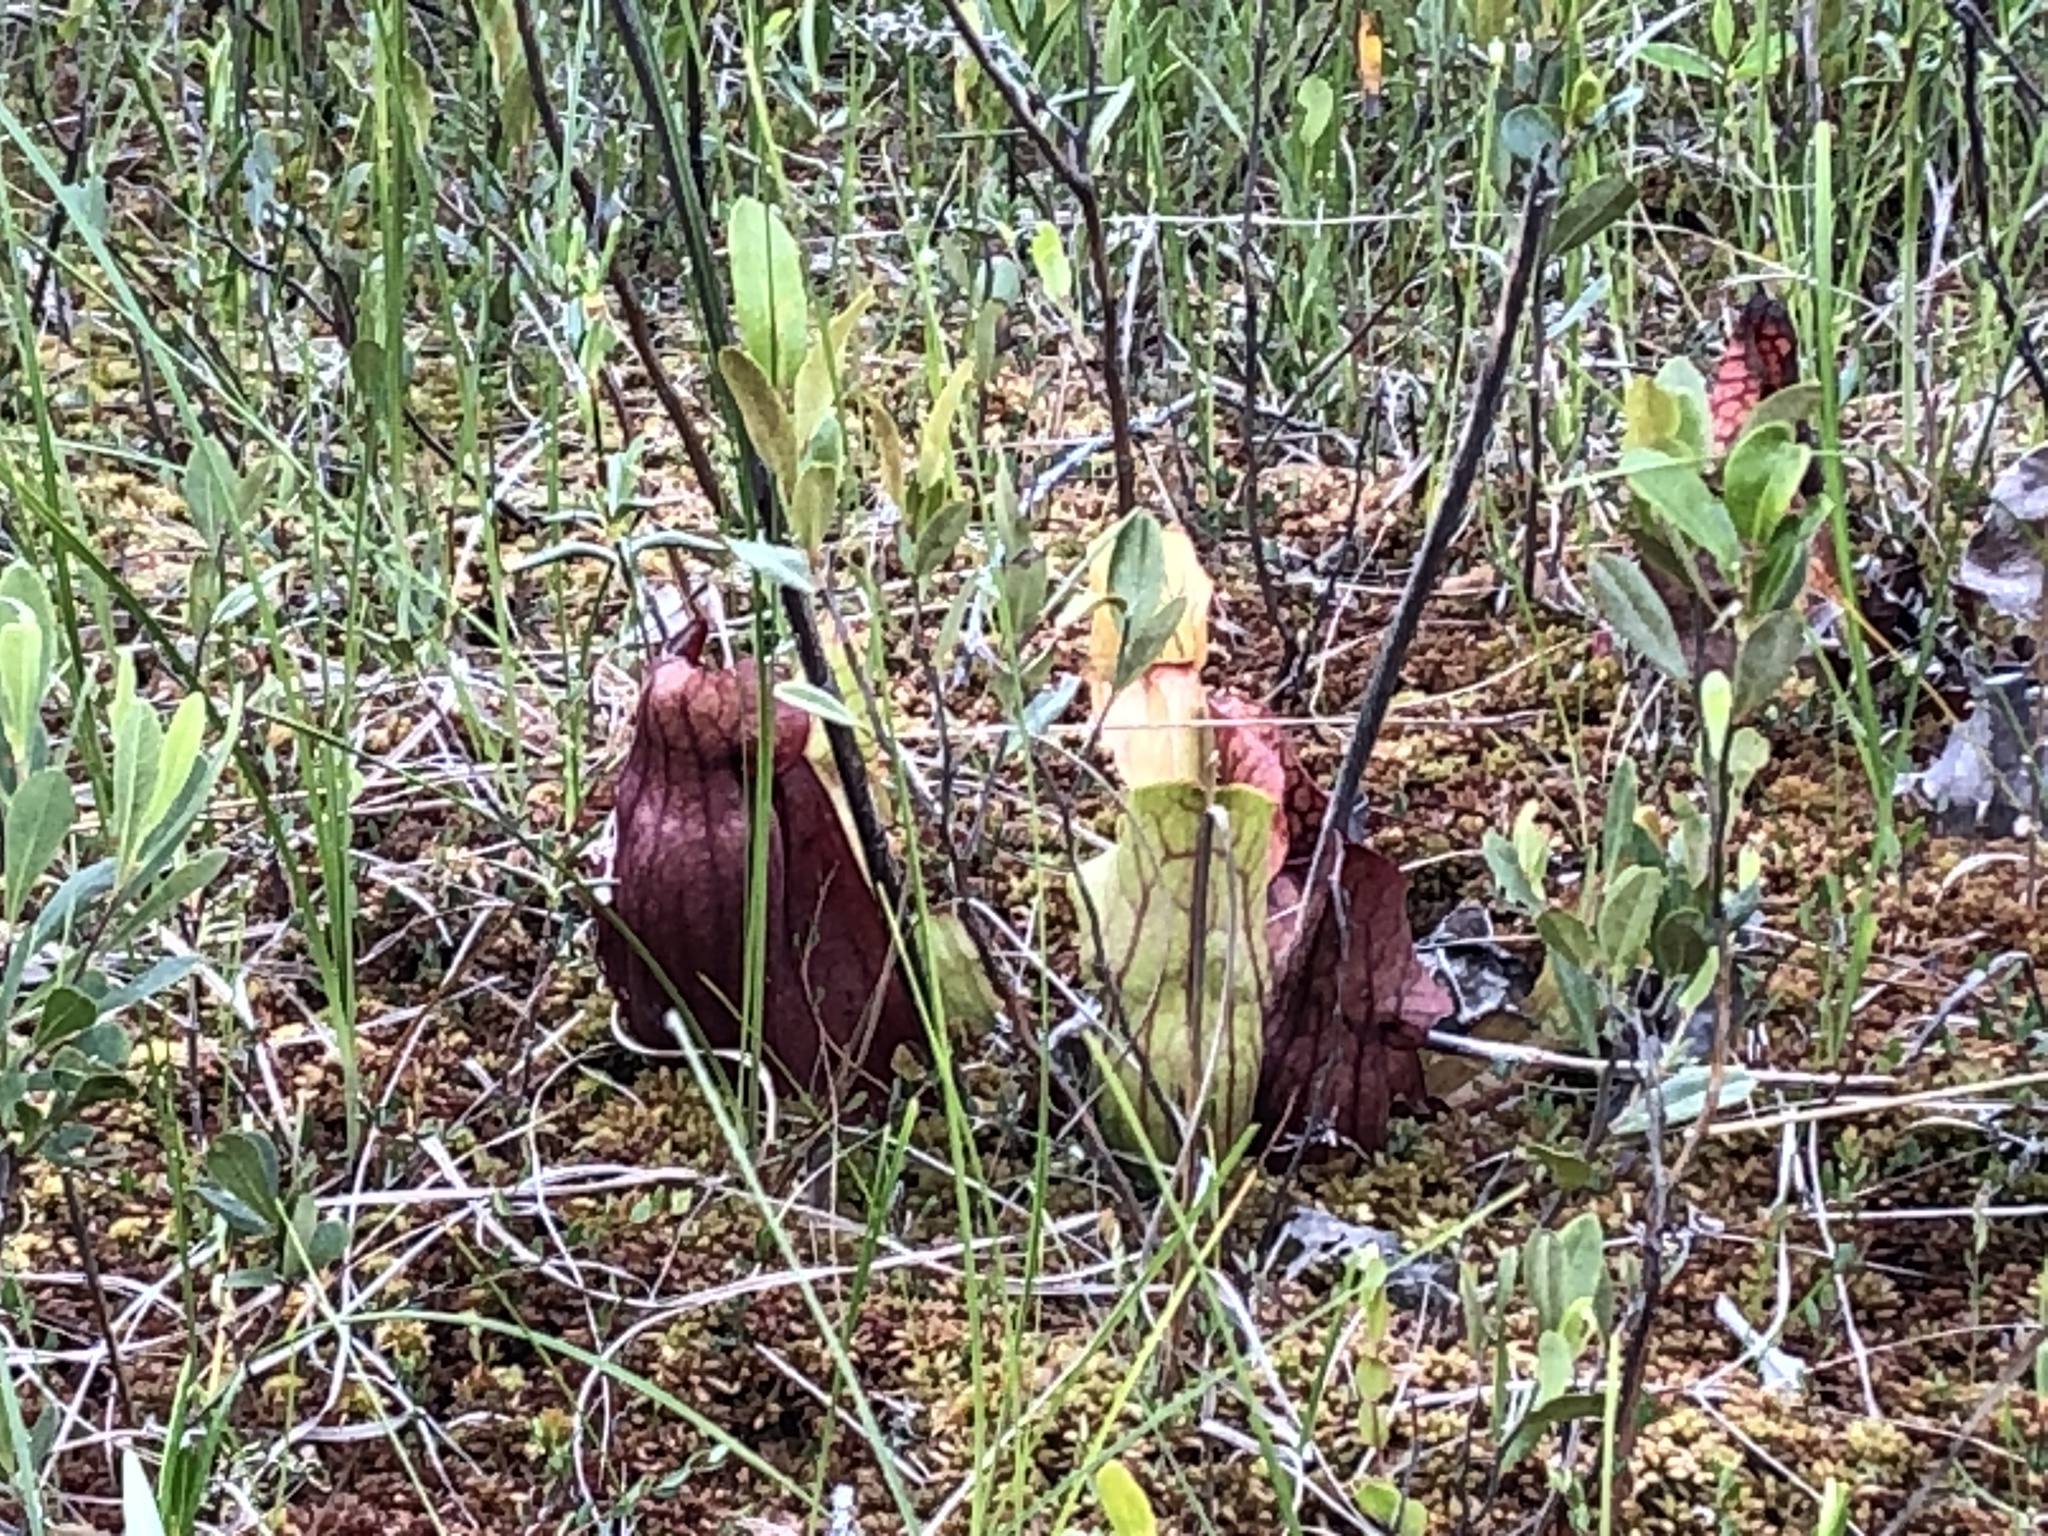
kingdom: Plantae
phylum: Tracheophyta
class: Magnoliopsida
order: Ericales
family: Sarraceniaceae
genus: Sarracenia
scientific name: Sarracenia purpurea
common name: Pitcherplant
